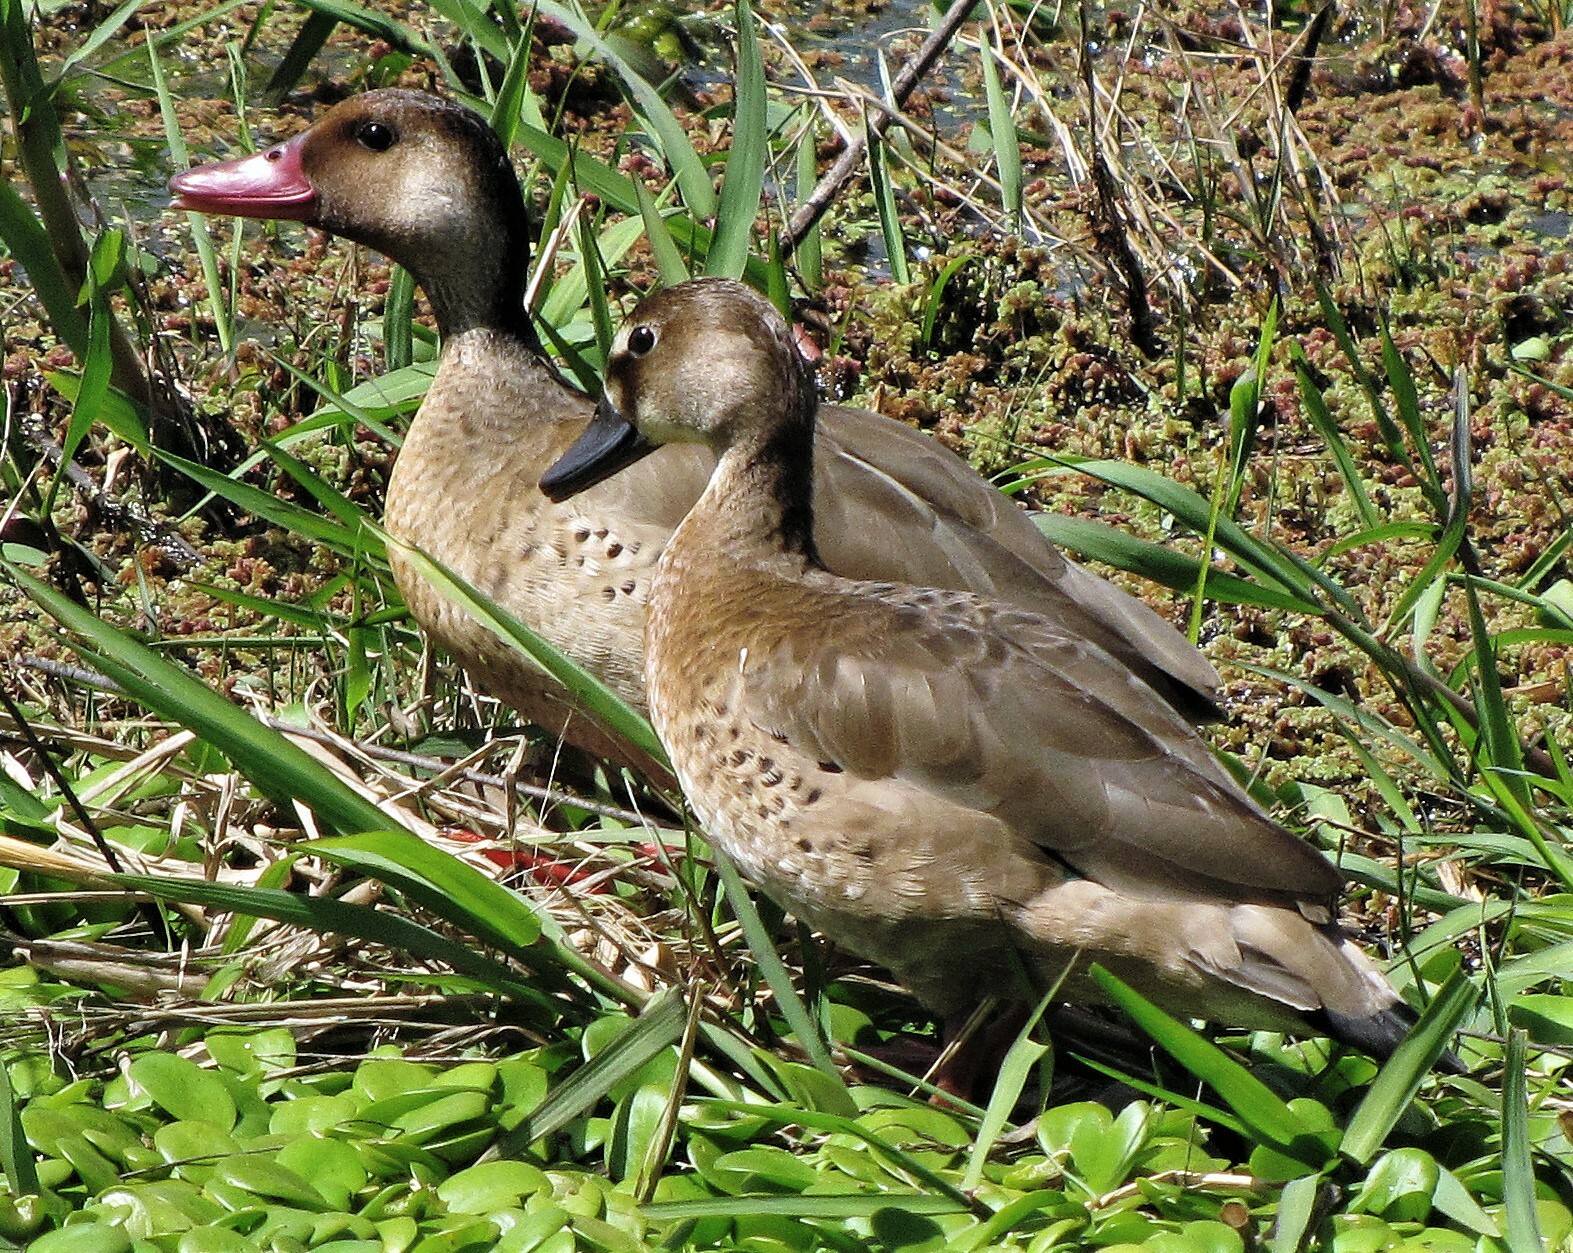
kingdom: Animalia
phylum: Chordata
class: Aves
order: Anseriformes
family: Anatidae
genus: Amazonetta
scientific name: Amazonetta brasiliensis
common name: Brazilian teal
